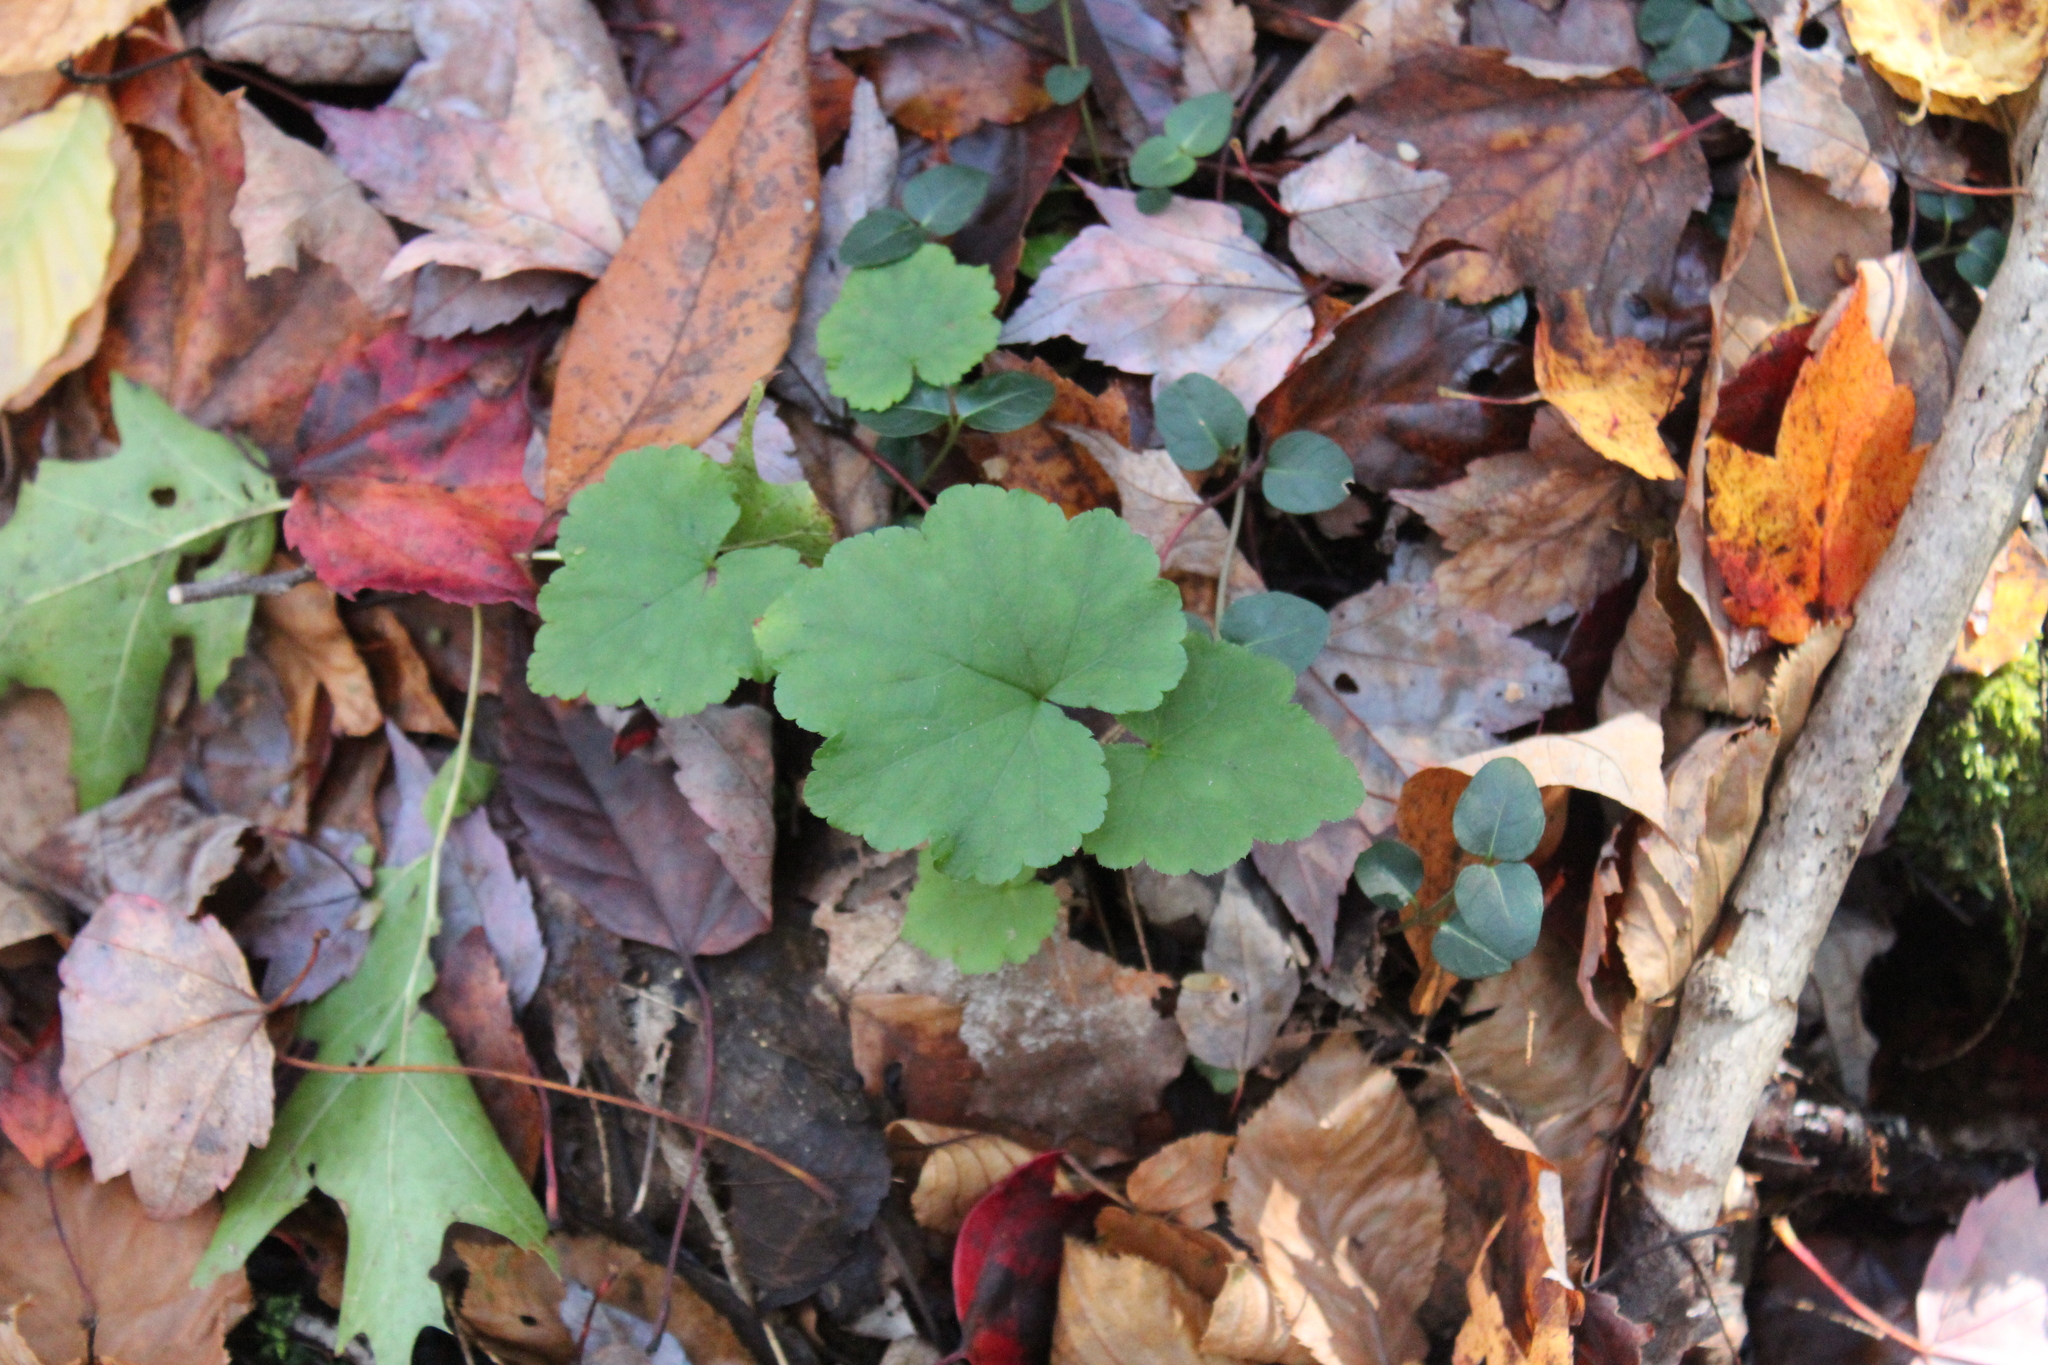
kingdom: Plantae
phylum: Tracheophyta
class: Magnoliopsida
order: Saxifragales
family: Saxifragaceae
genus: Tiarella
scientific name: Tiarella stolonifera
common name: Stoloniferous foamflower
